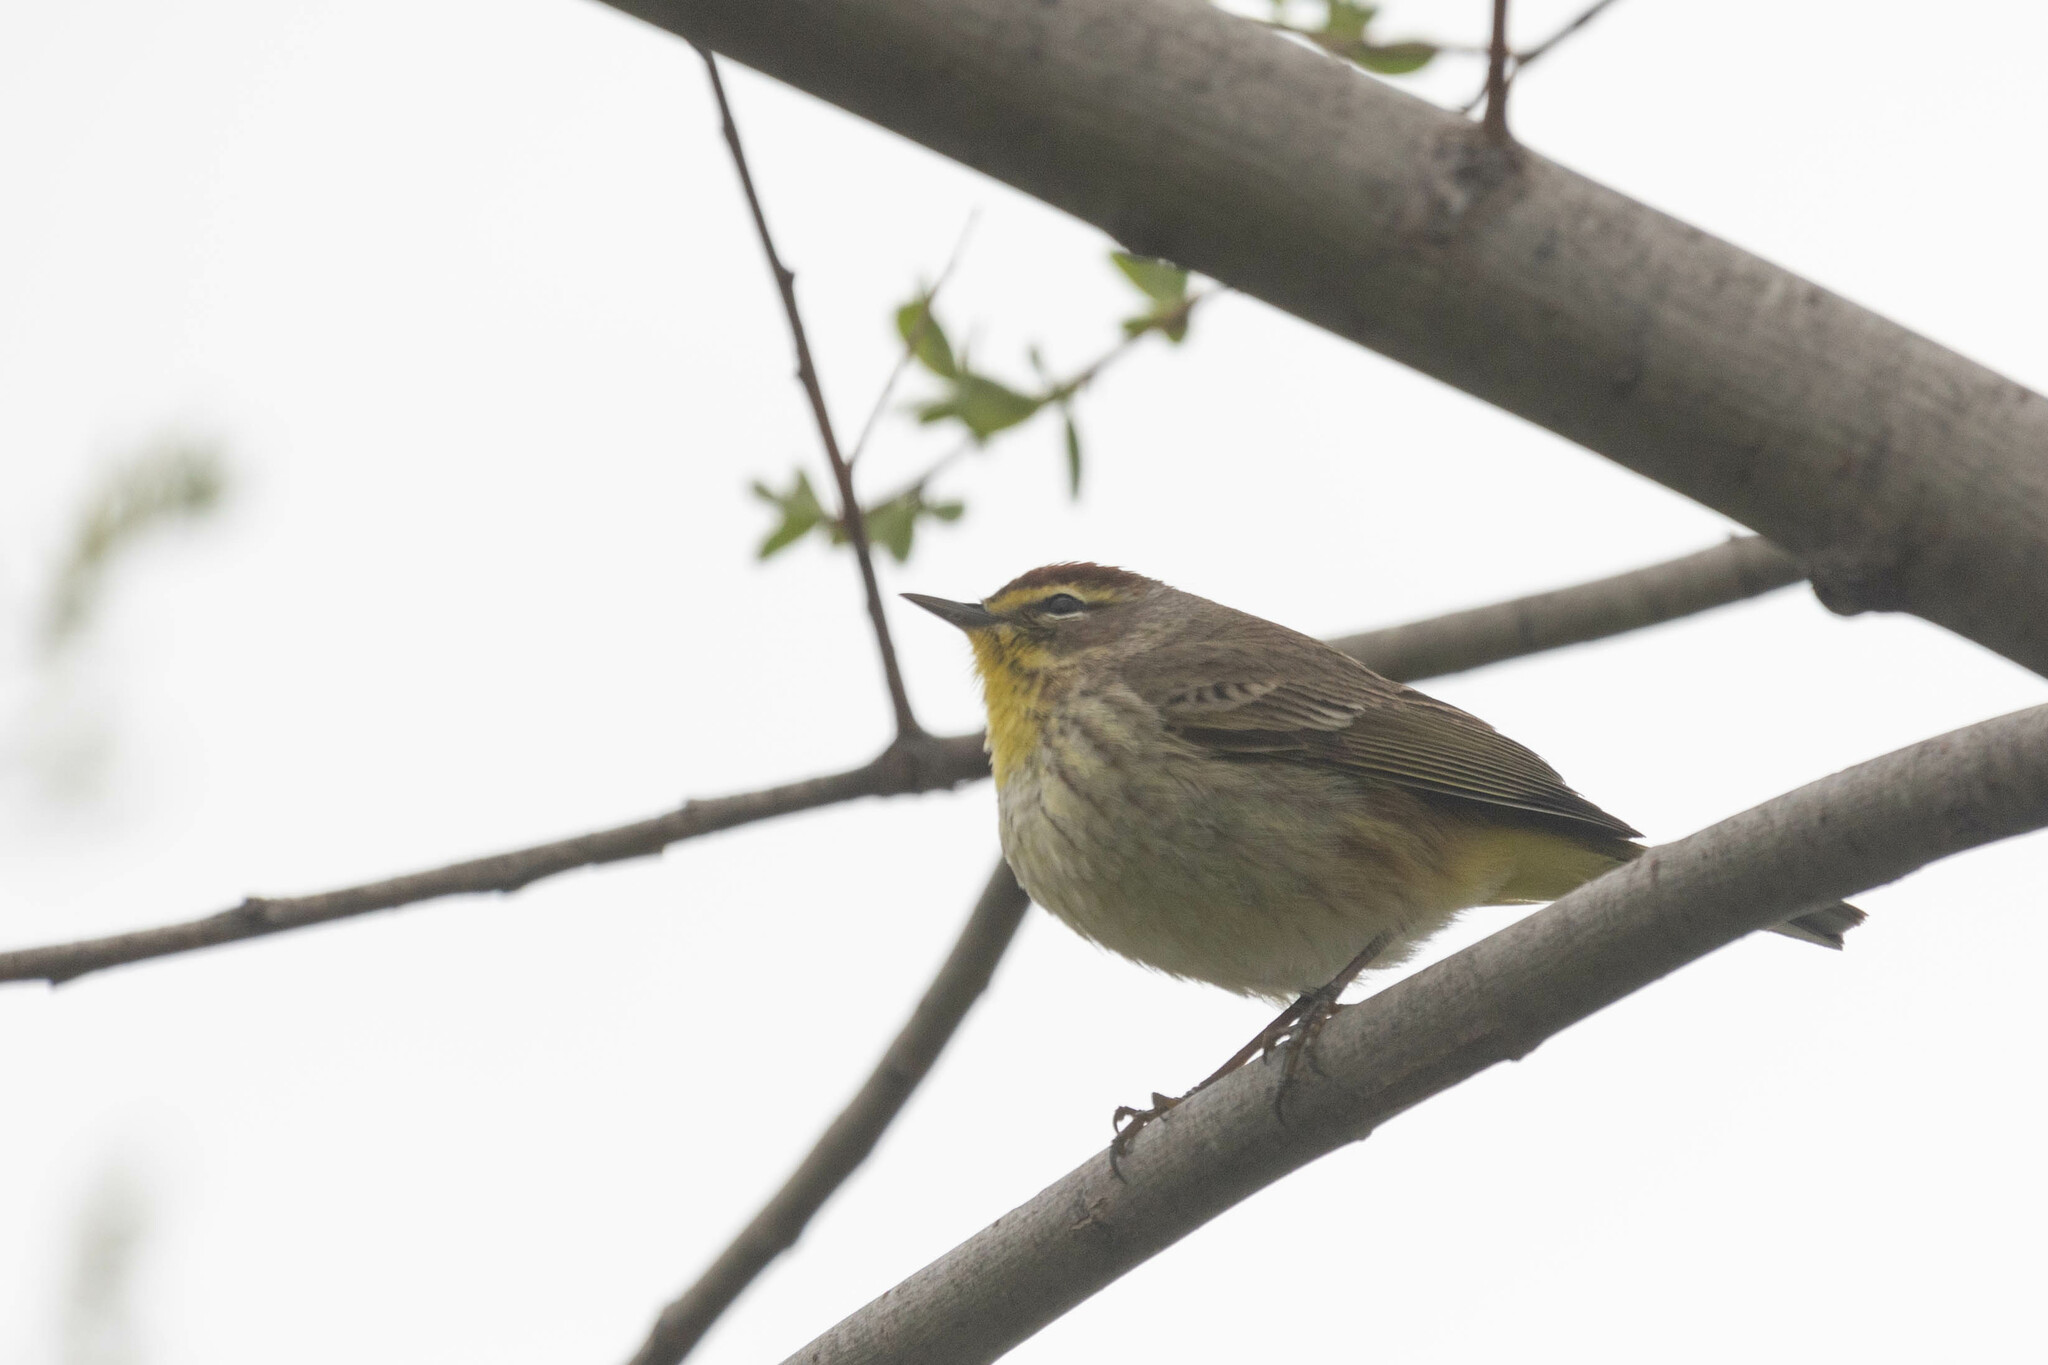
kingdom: Animalia
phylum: Chordata
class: Aves
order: Passeriformes
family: Parulidae
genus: Setophaga
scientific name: Setophaga palmarum
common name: Palm warbler
